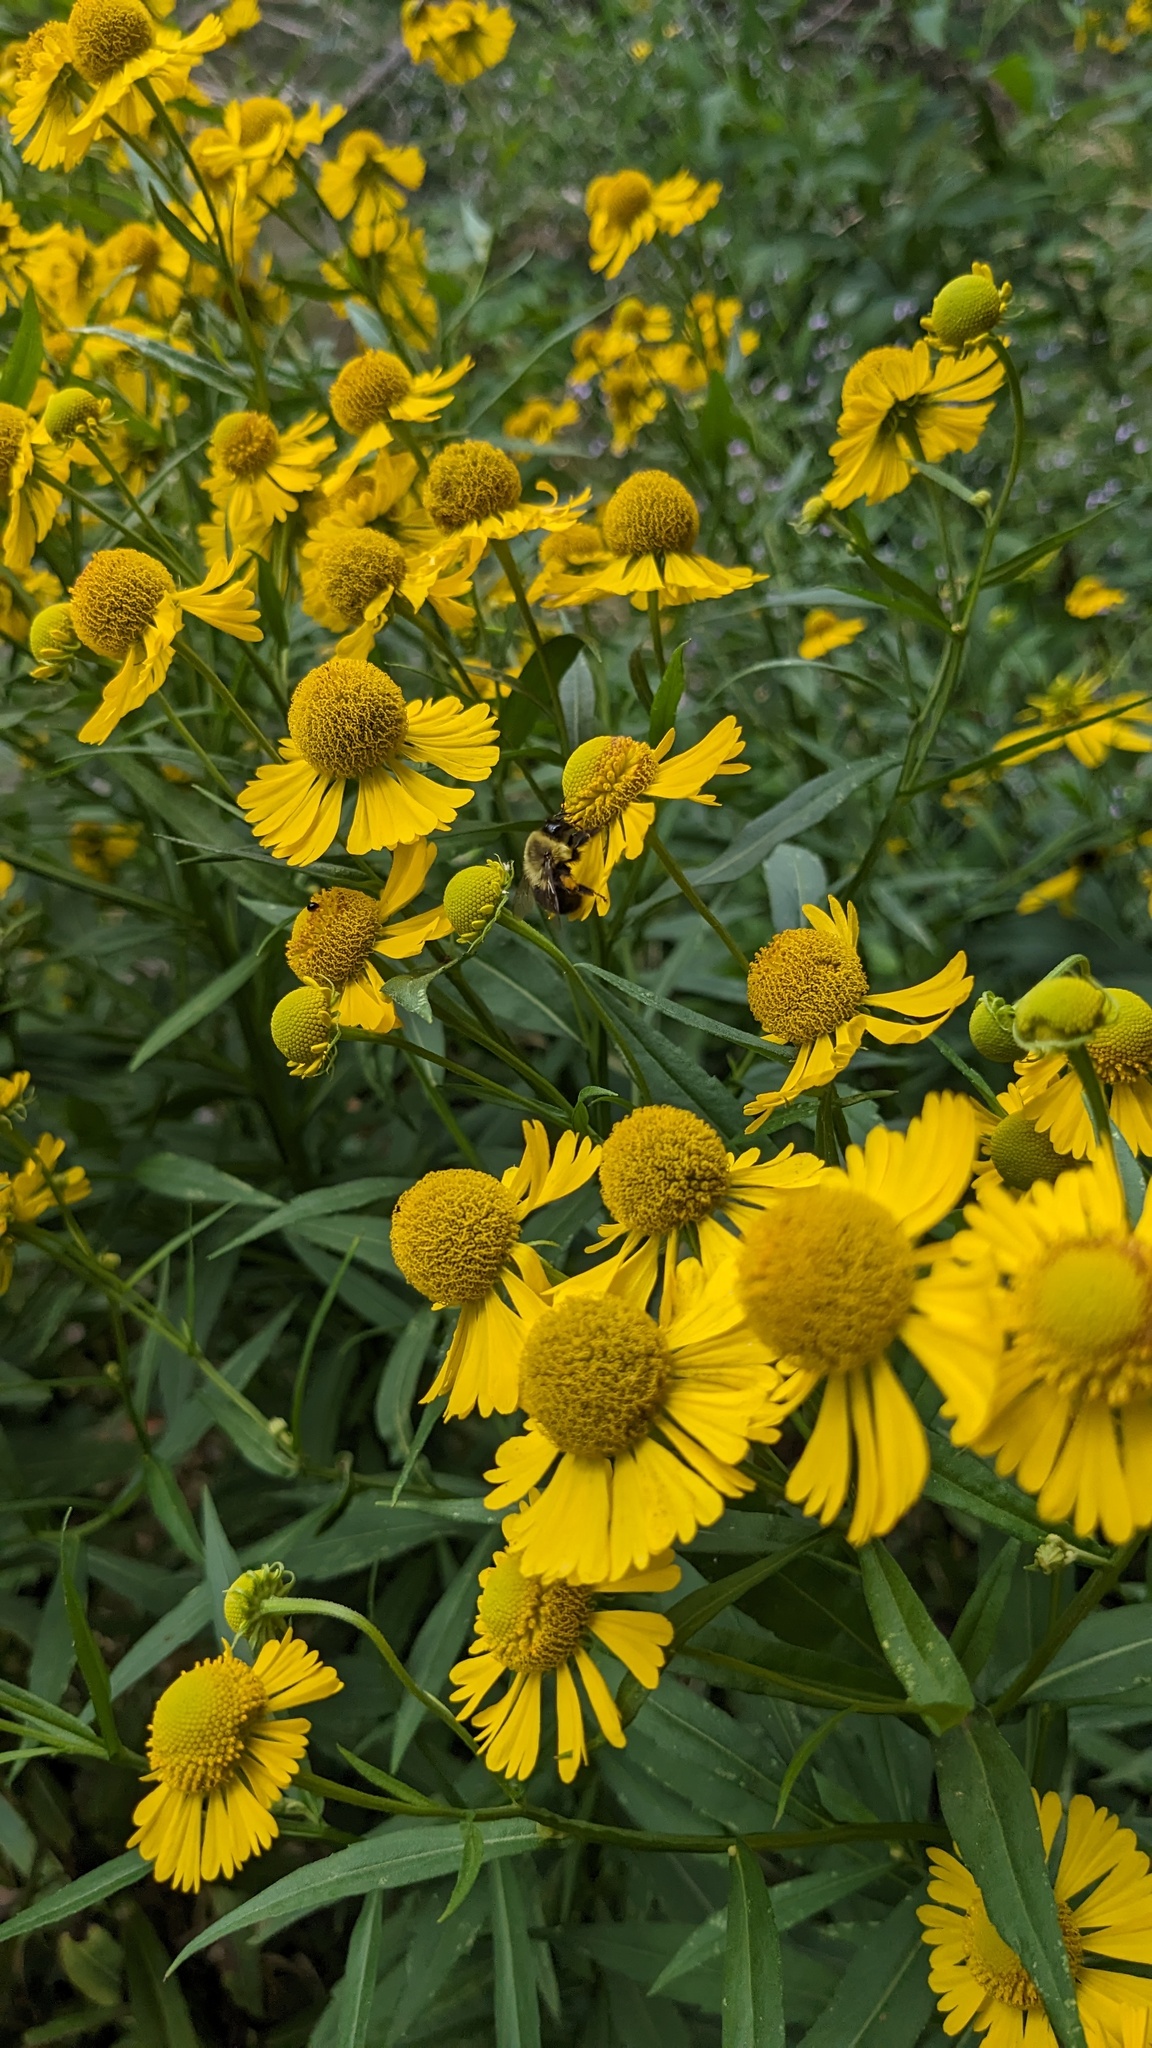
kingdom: Plantae
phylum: Tracheophyta
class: Magnoliopsida
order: Asterales
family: Asteraceae
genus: Helenium
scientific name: Helenium autumnale
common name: Sneezeweed
